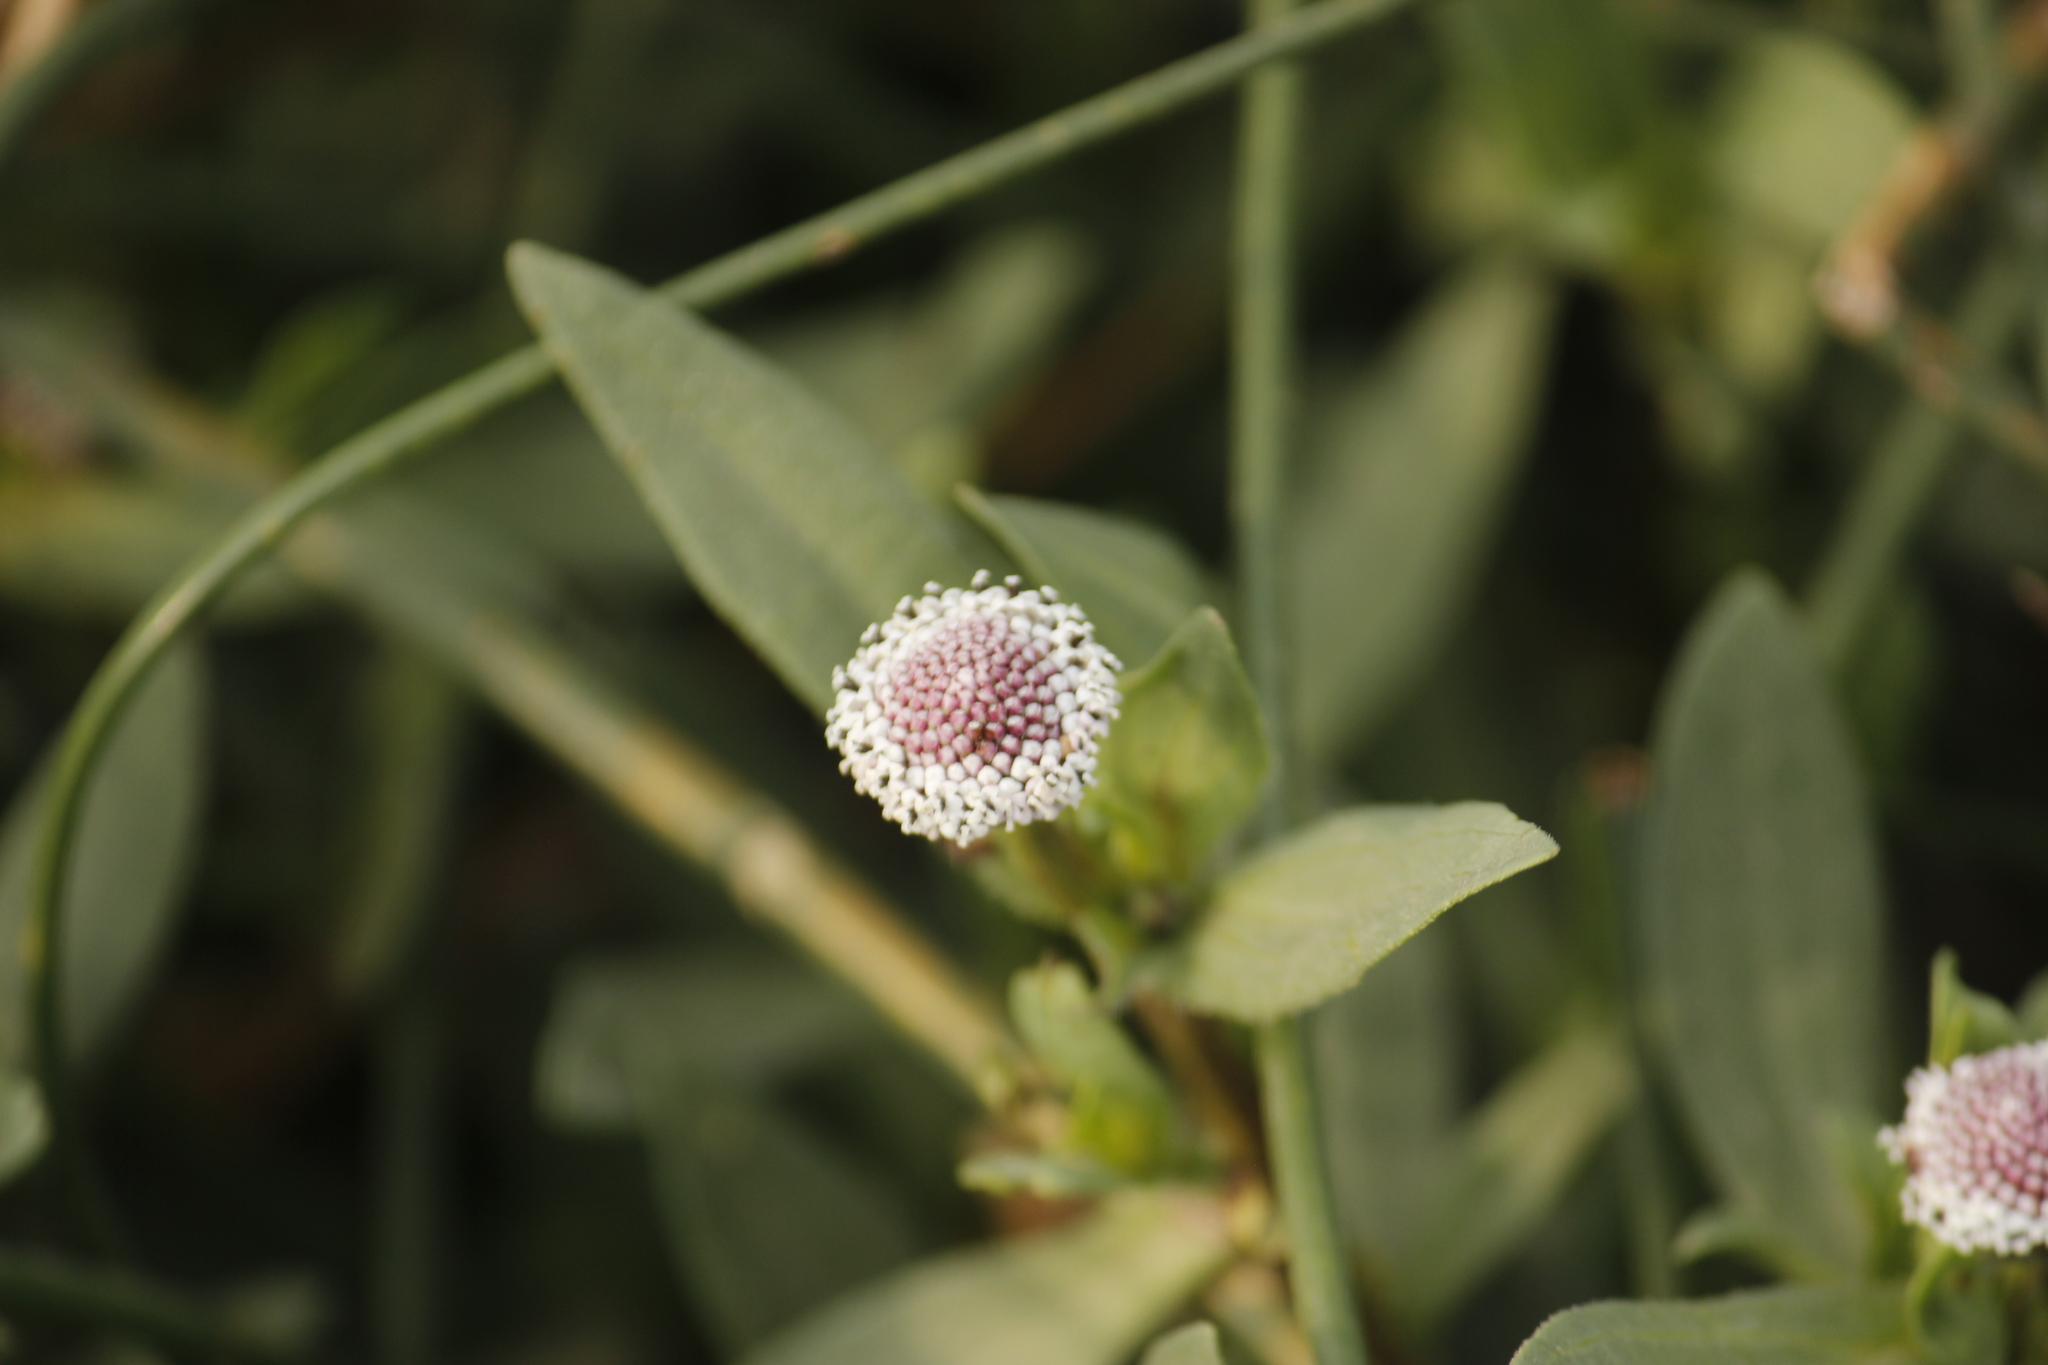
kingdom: Plantae
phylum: Tracheophyta
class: Magnoliopsida
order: Asterales
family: Asteraceae
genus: Spilanthes
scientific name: Spilanthes leiocarpa
